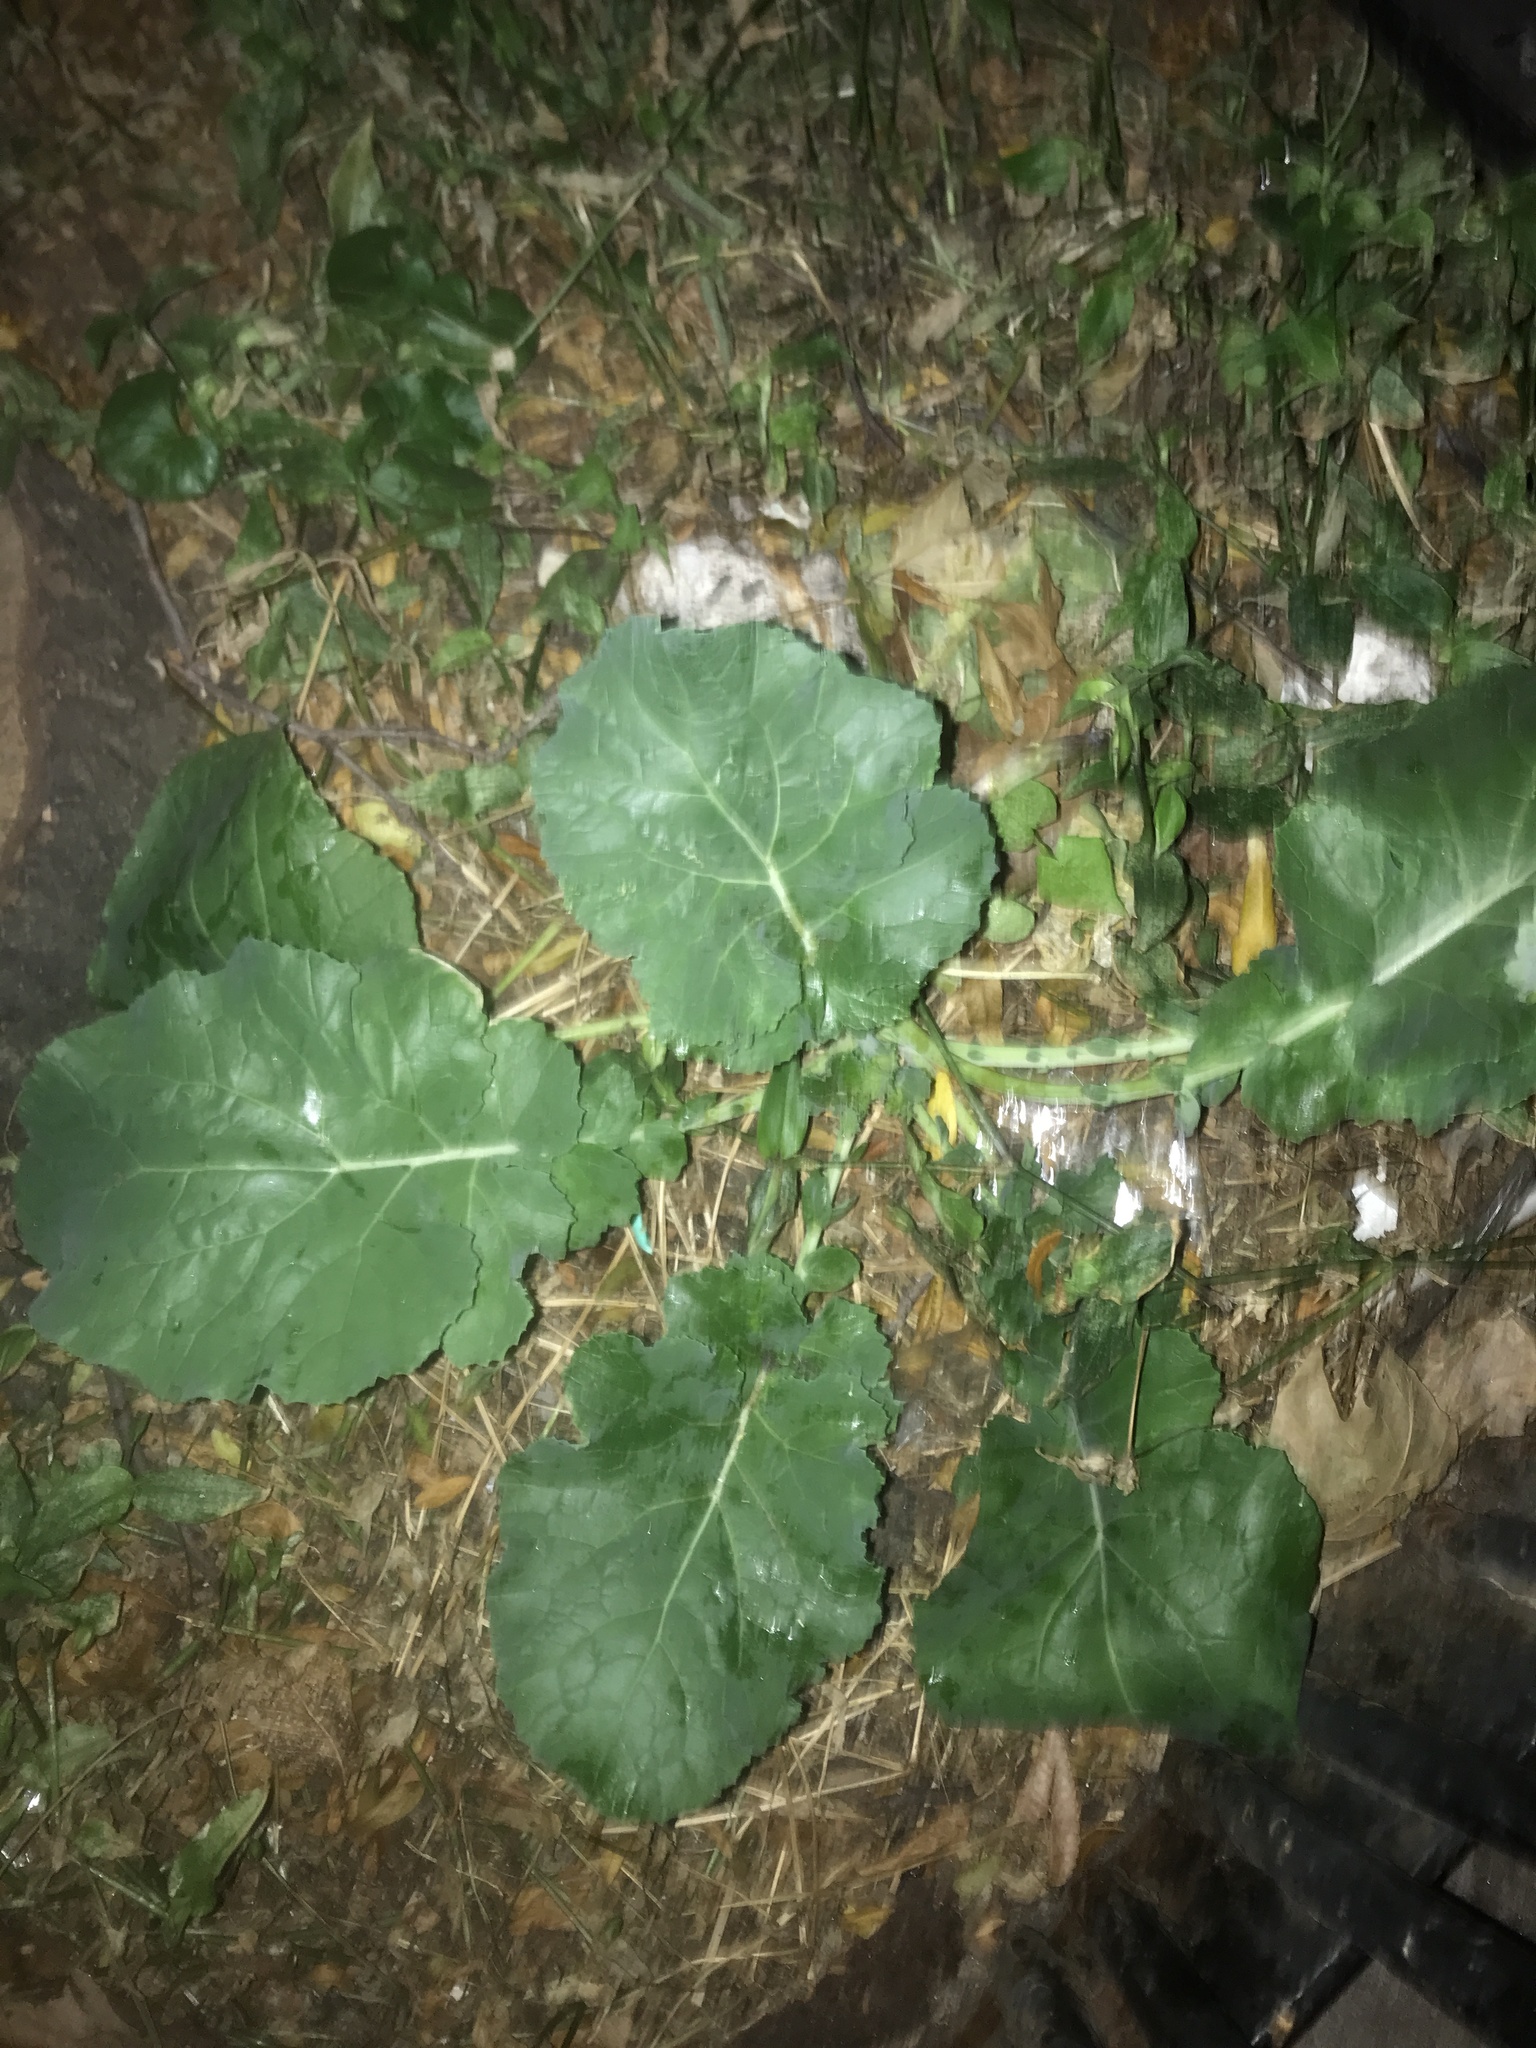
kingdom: Plantae
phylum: Tracheophyta
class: Magnoliopsida
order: Asterales
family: Asteraceae
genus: Arctium
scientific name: Arctium
